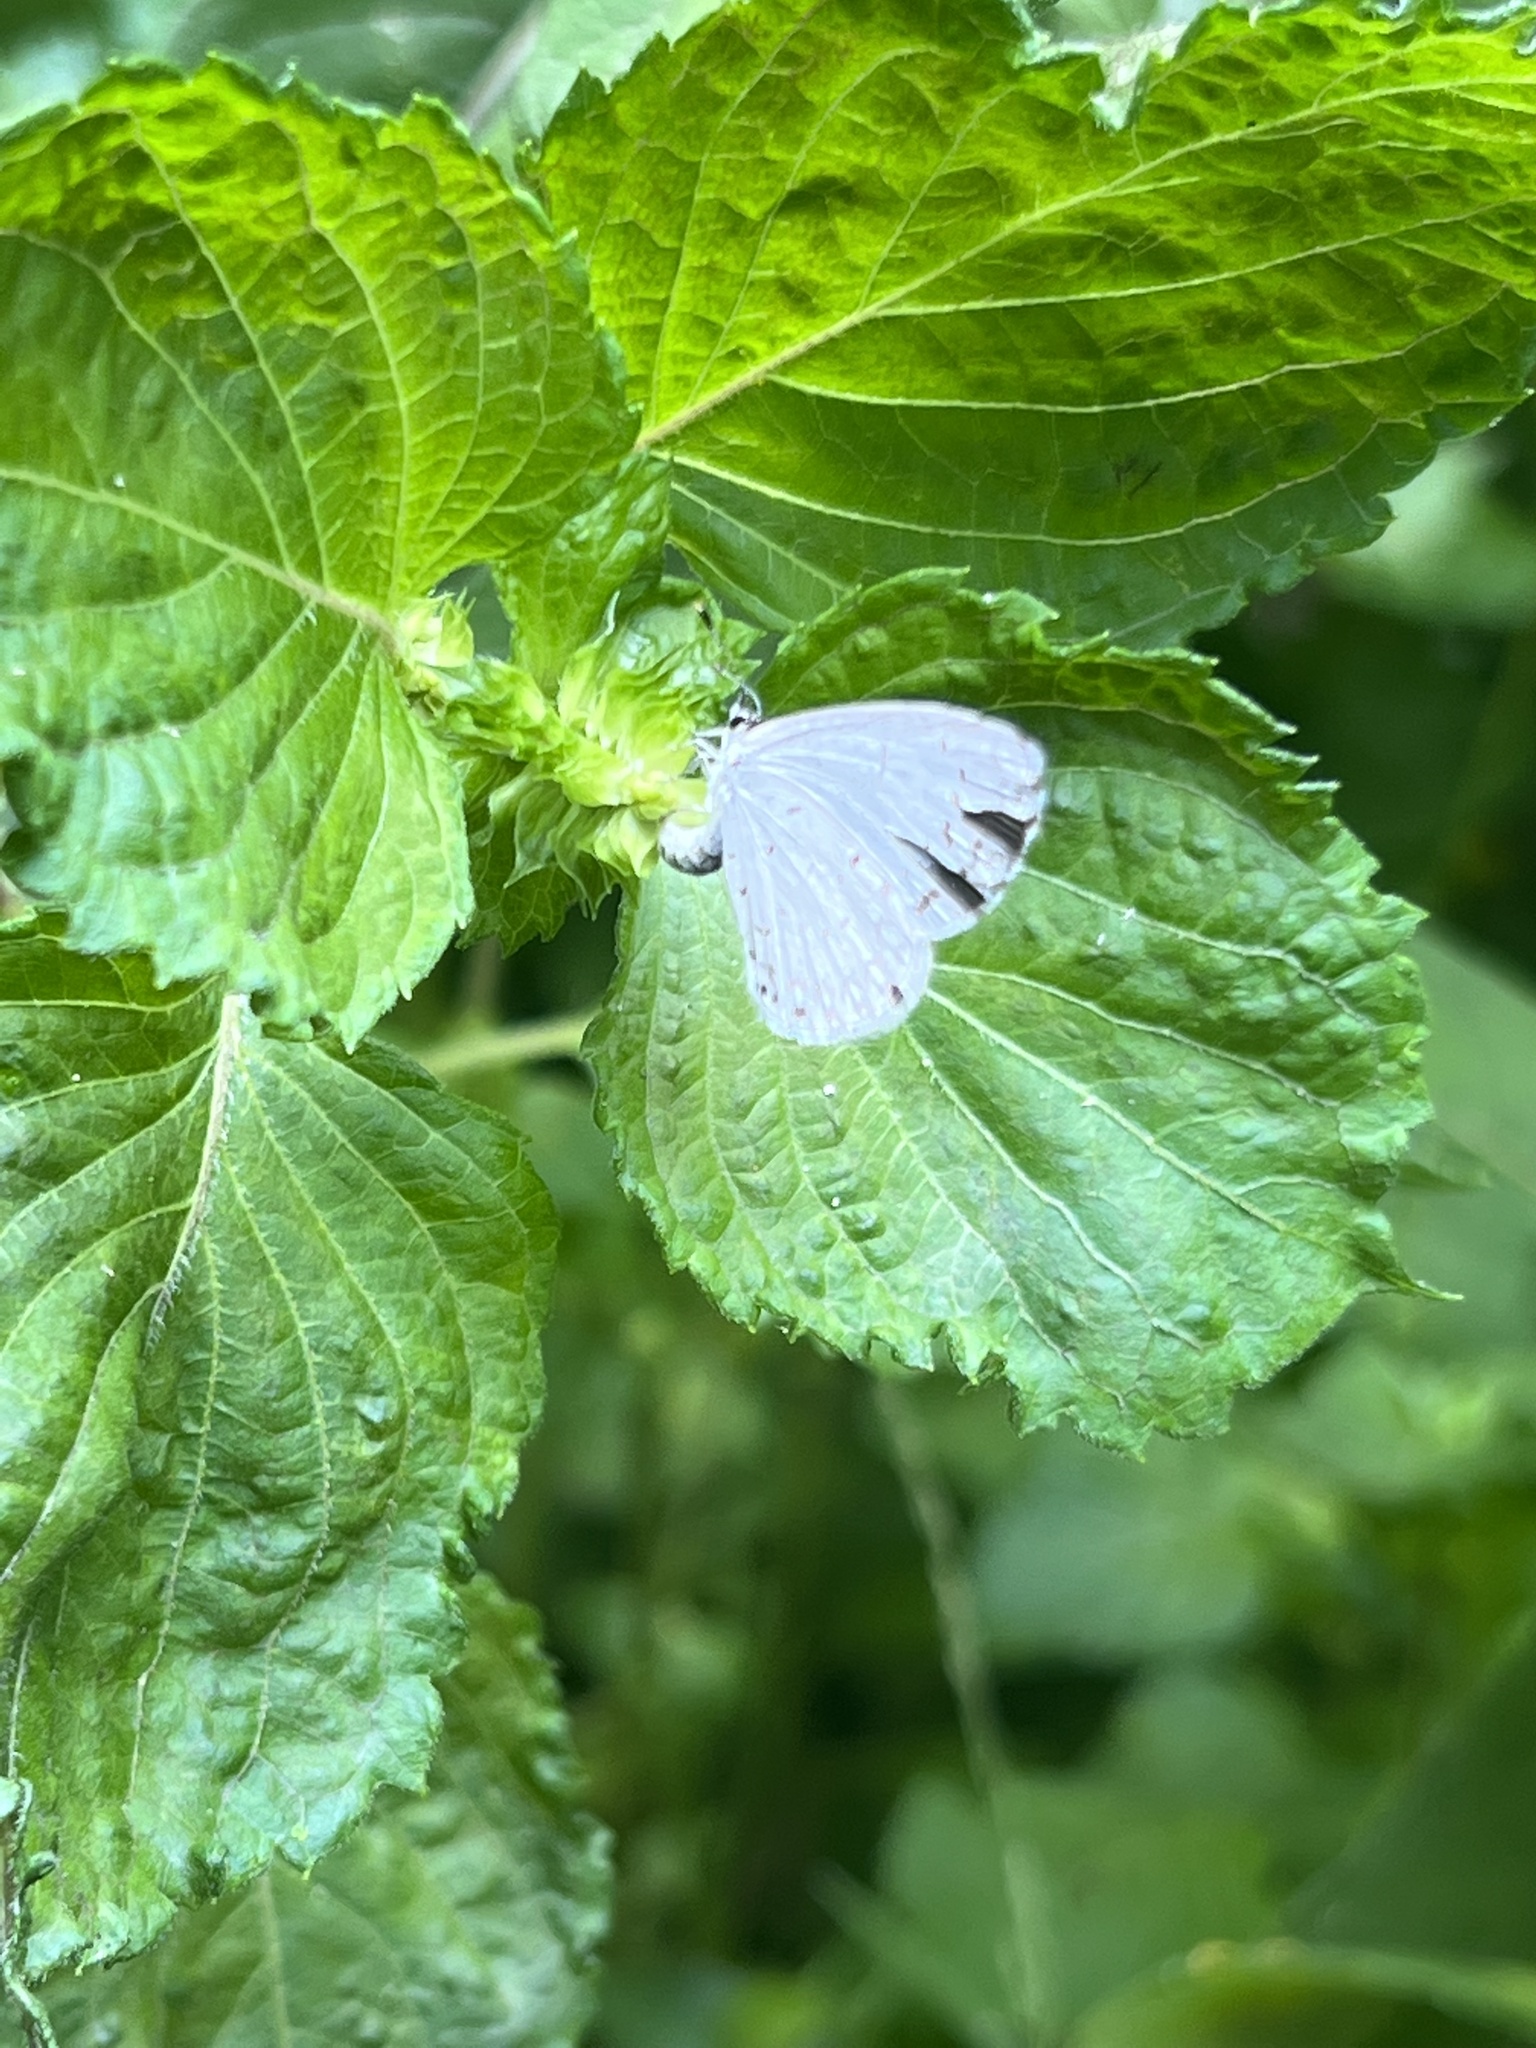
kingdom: Animalia
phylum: Arthropoda
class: Insecta
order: Lepidoptera
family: Lycaenidae
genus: Cyaniris
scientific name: Cyaniris neglecta
